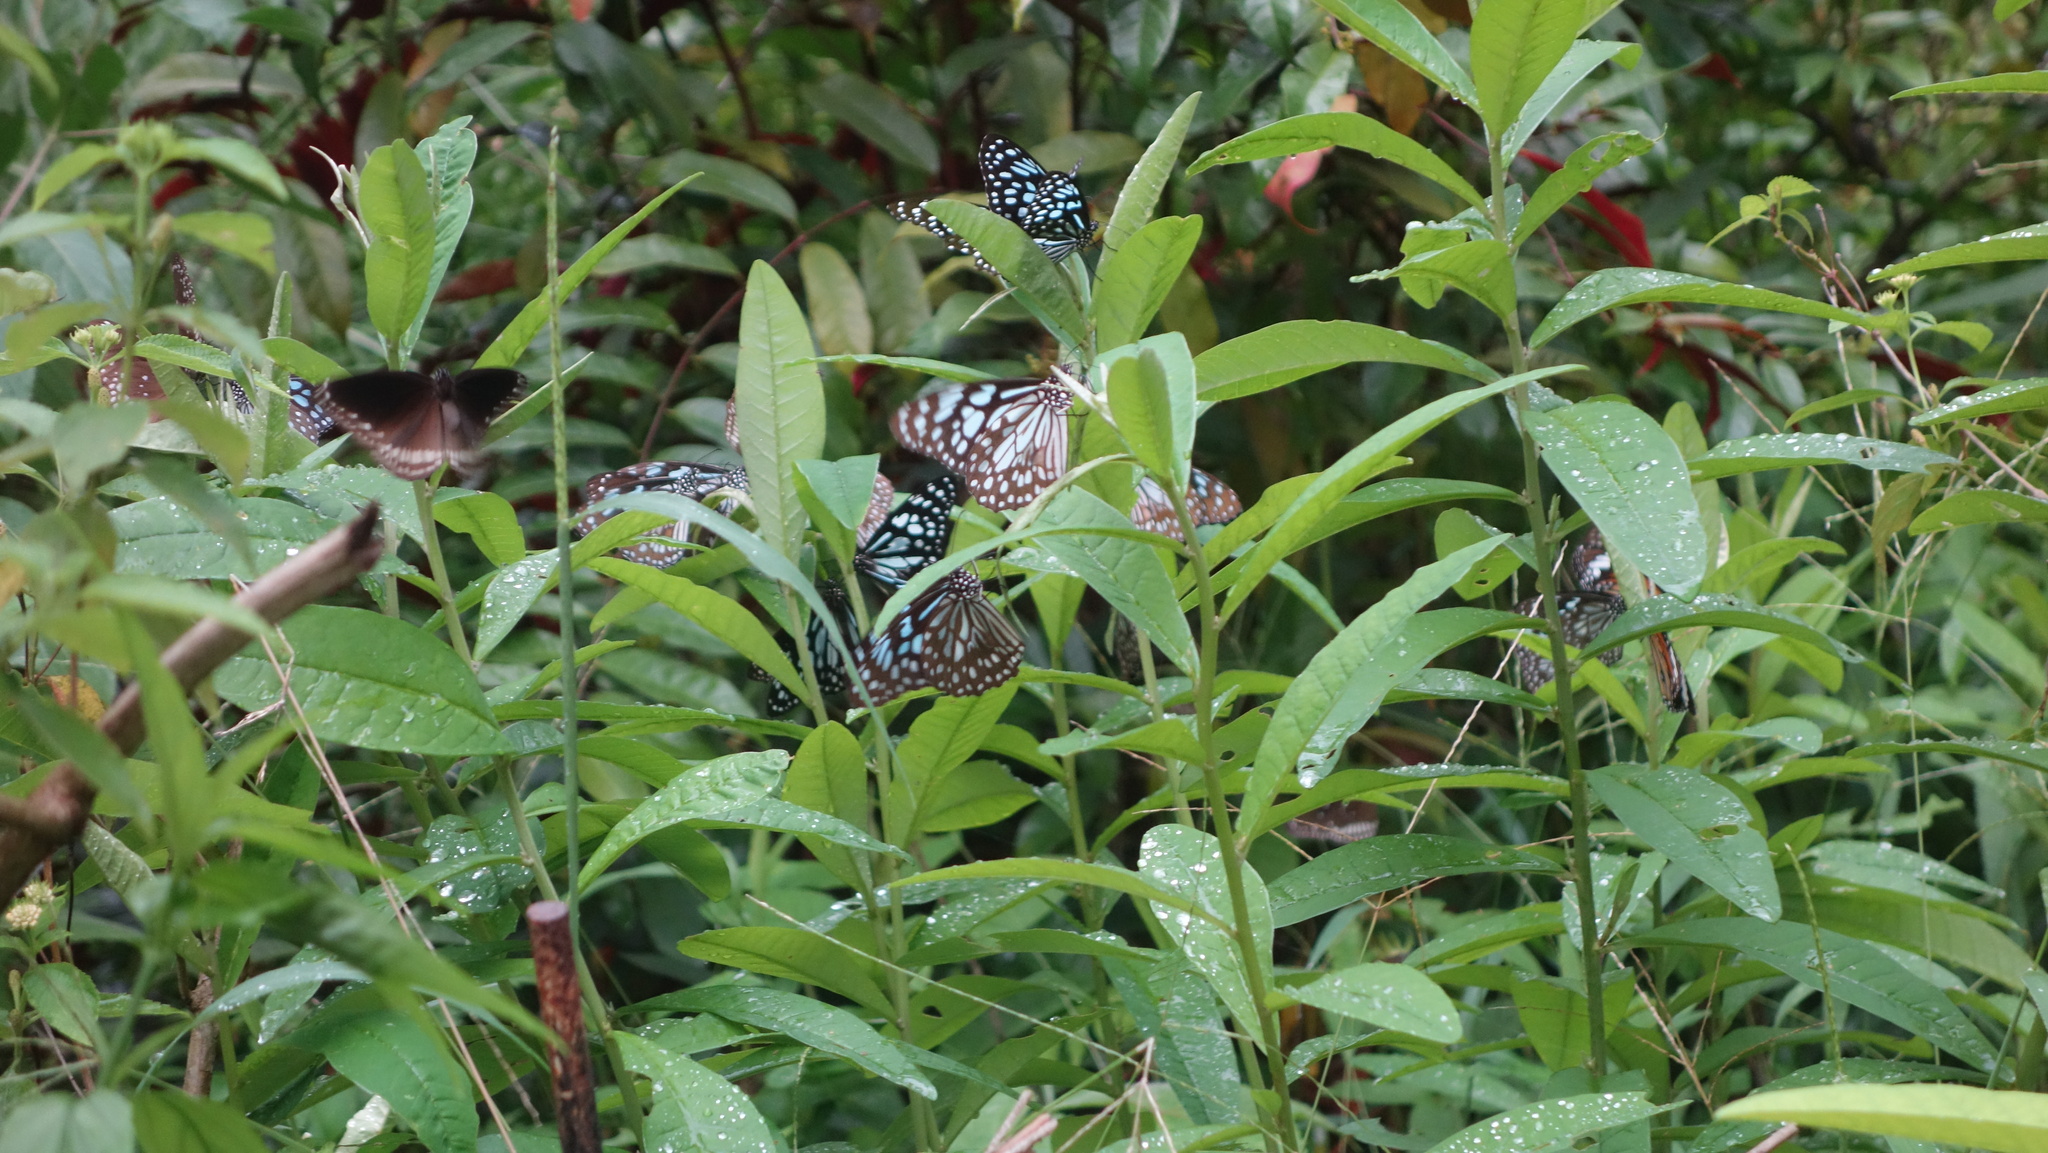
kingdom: Animalia
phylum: Arthropoda
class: Insecta
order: Lepidoptera
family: Nymphalidae
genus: Tirumala
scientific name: Tirumala septentrionis
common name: Dark blue tiger butterfly
